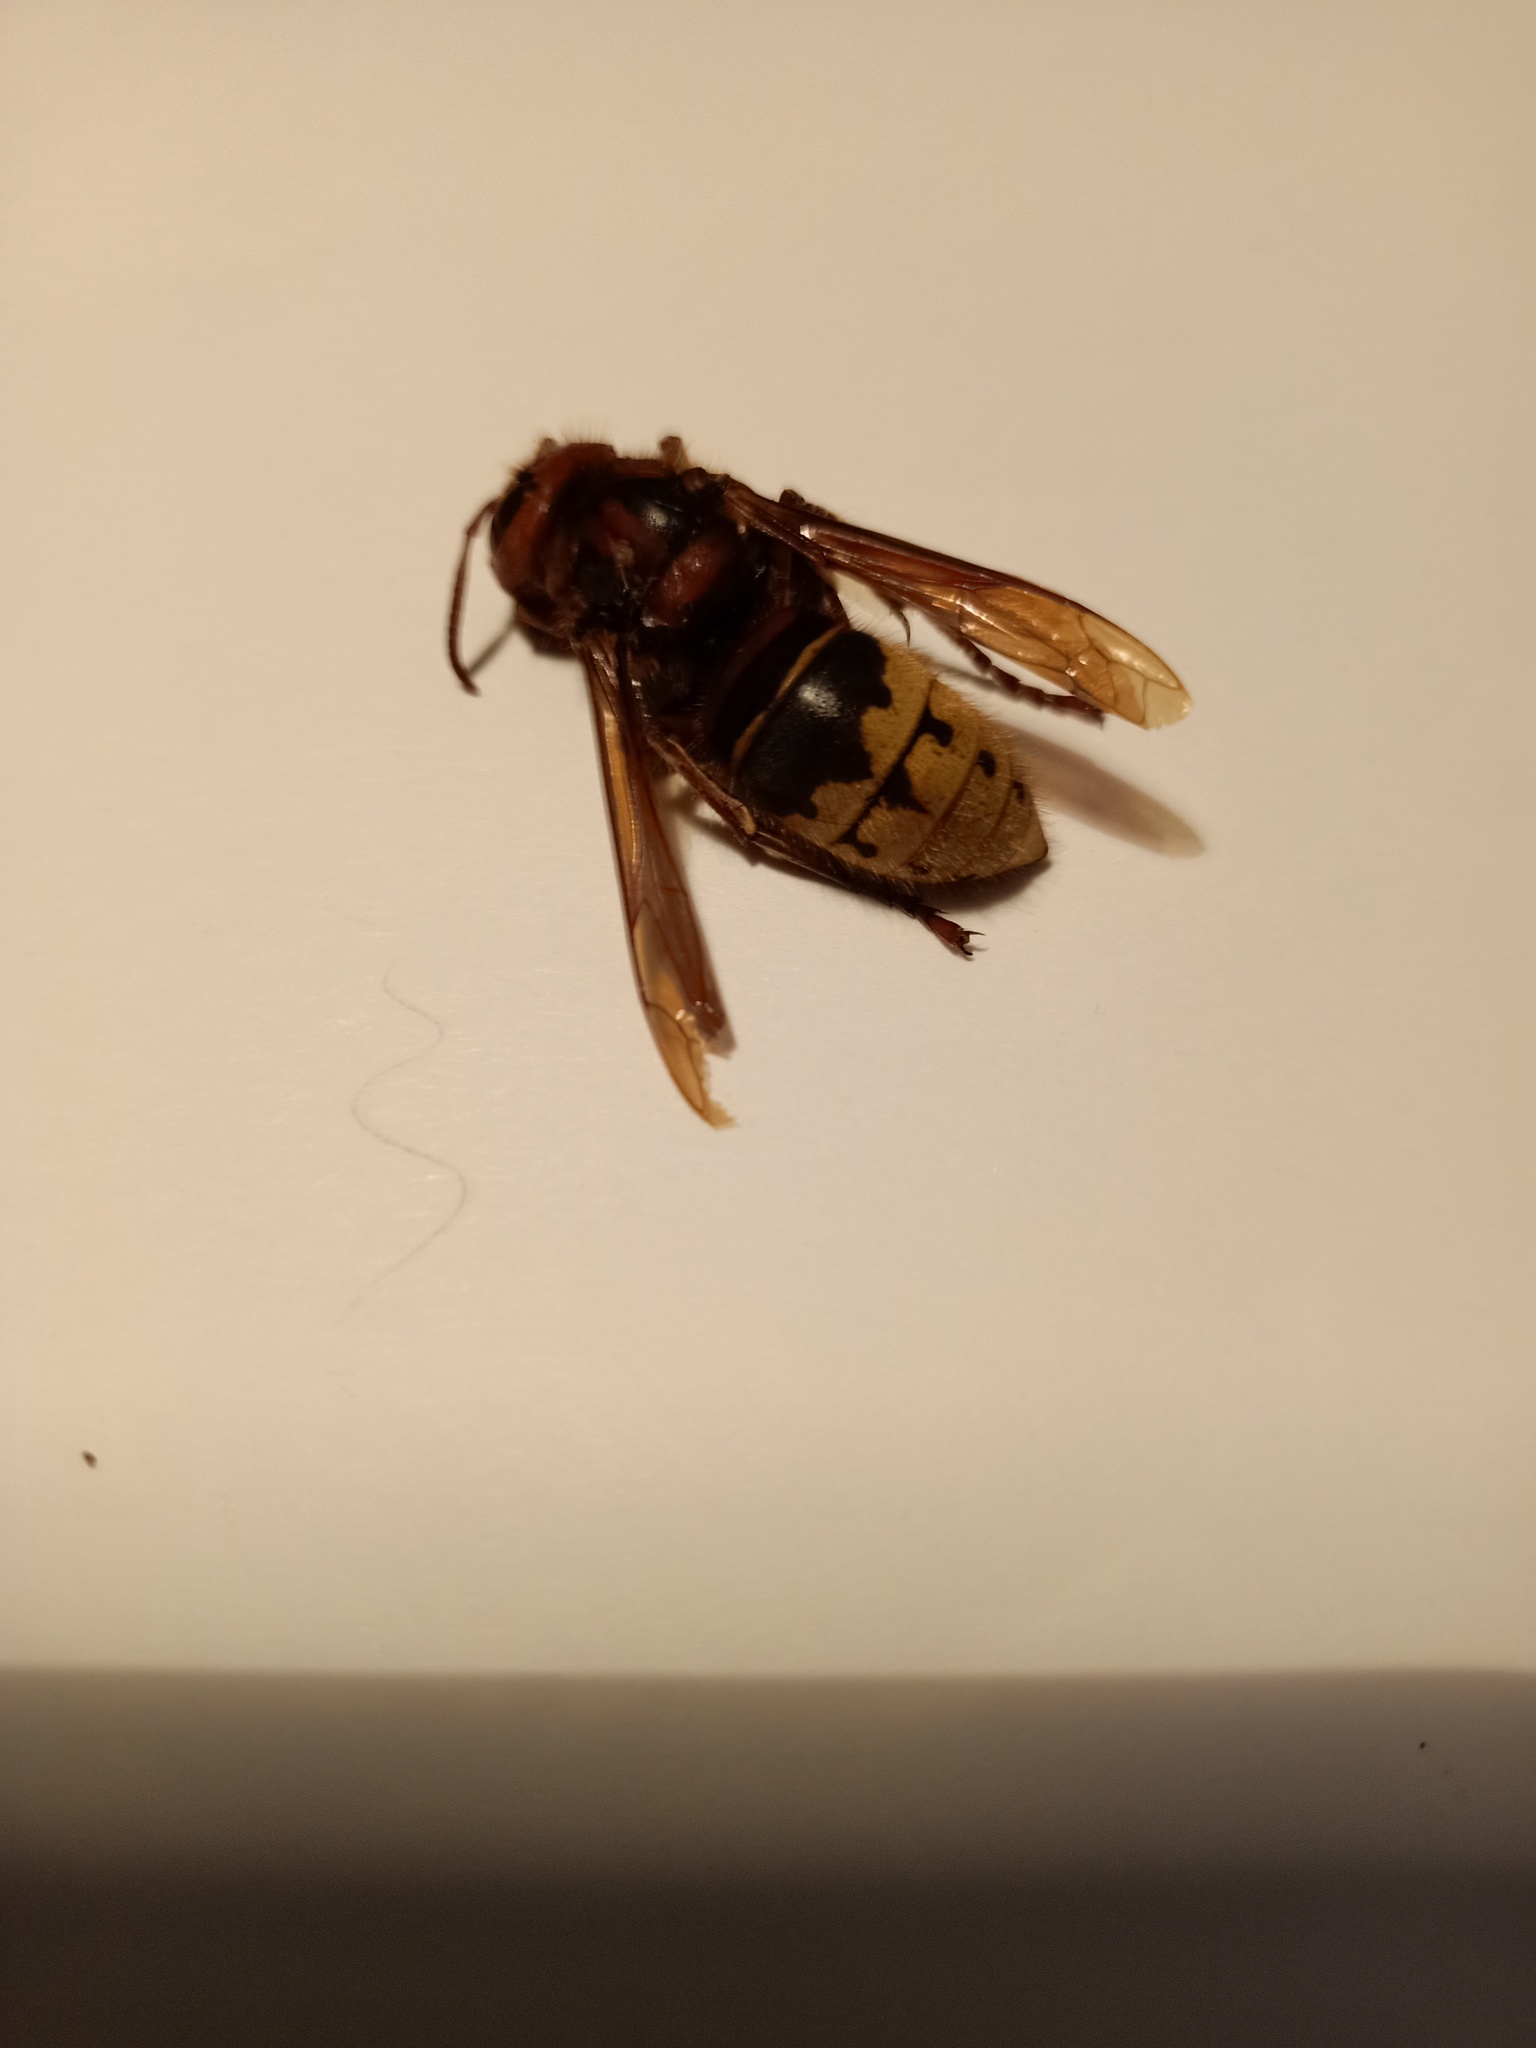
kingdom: Animalia
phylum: Arthropoda
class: Insecta
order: Hymenoptera
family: Vespidae
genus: Vespa
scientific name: Vespa crabro
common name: Hornet
